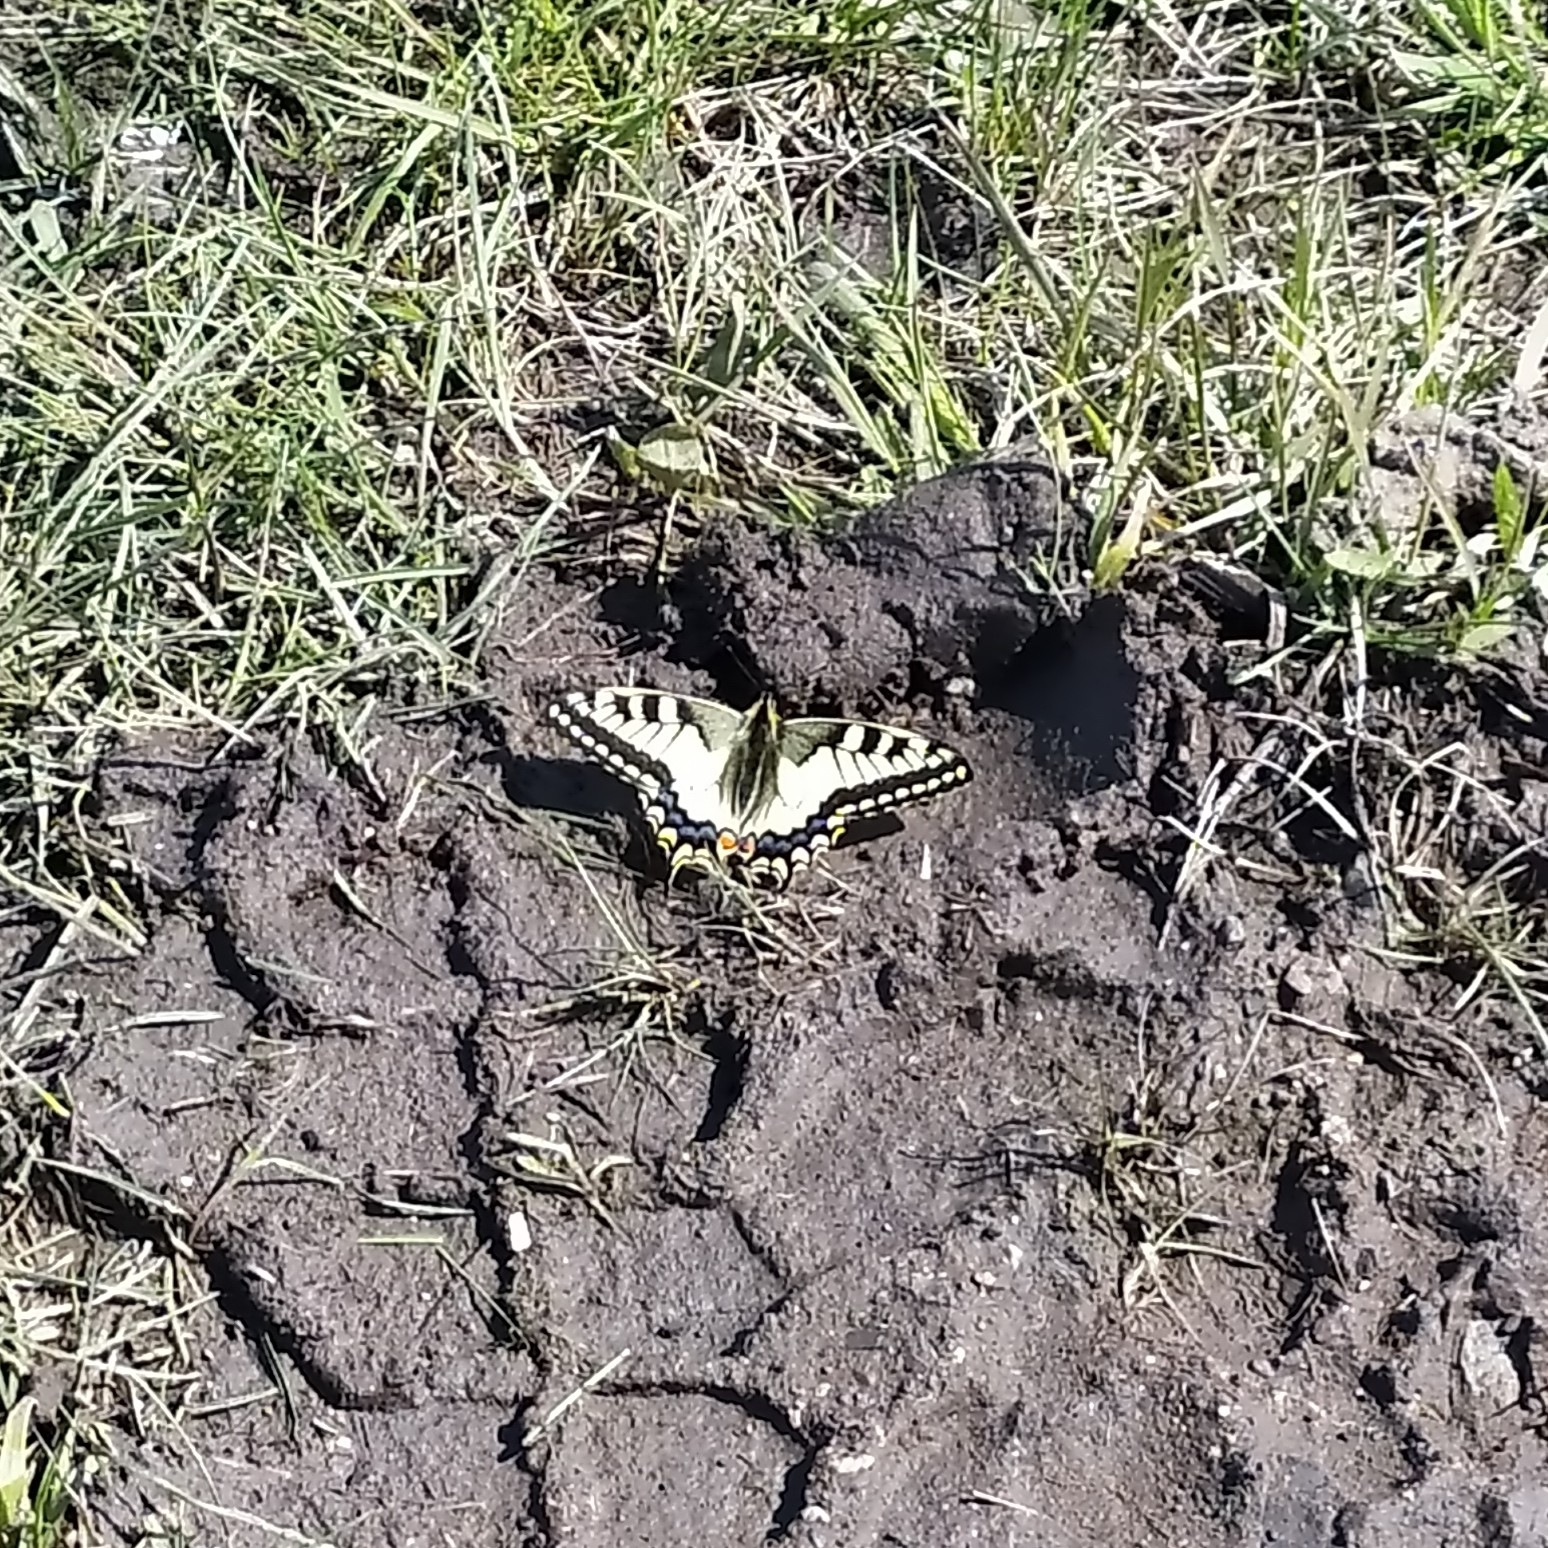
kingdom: Animalia
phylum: Arthropoda
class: Insecta
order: Lepidoptera
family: Papilionidae
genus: Papilio
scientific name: Papilio machaon
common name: Swallowtail
